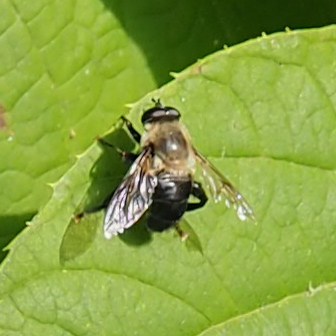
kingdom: Animalia
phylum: Arthropoda
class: Insecta
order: Diptera
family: Syrphidae
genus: Imatisma
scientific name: Imatisma bautias
